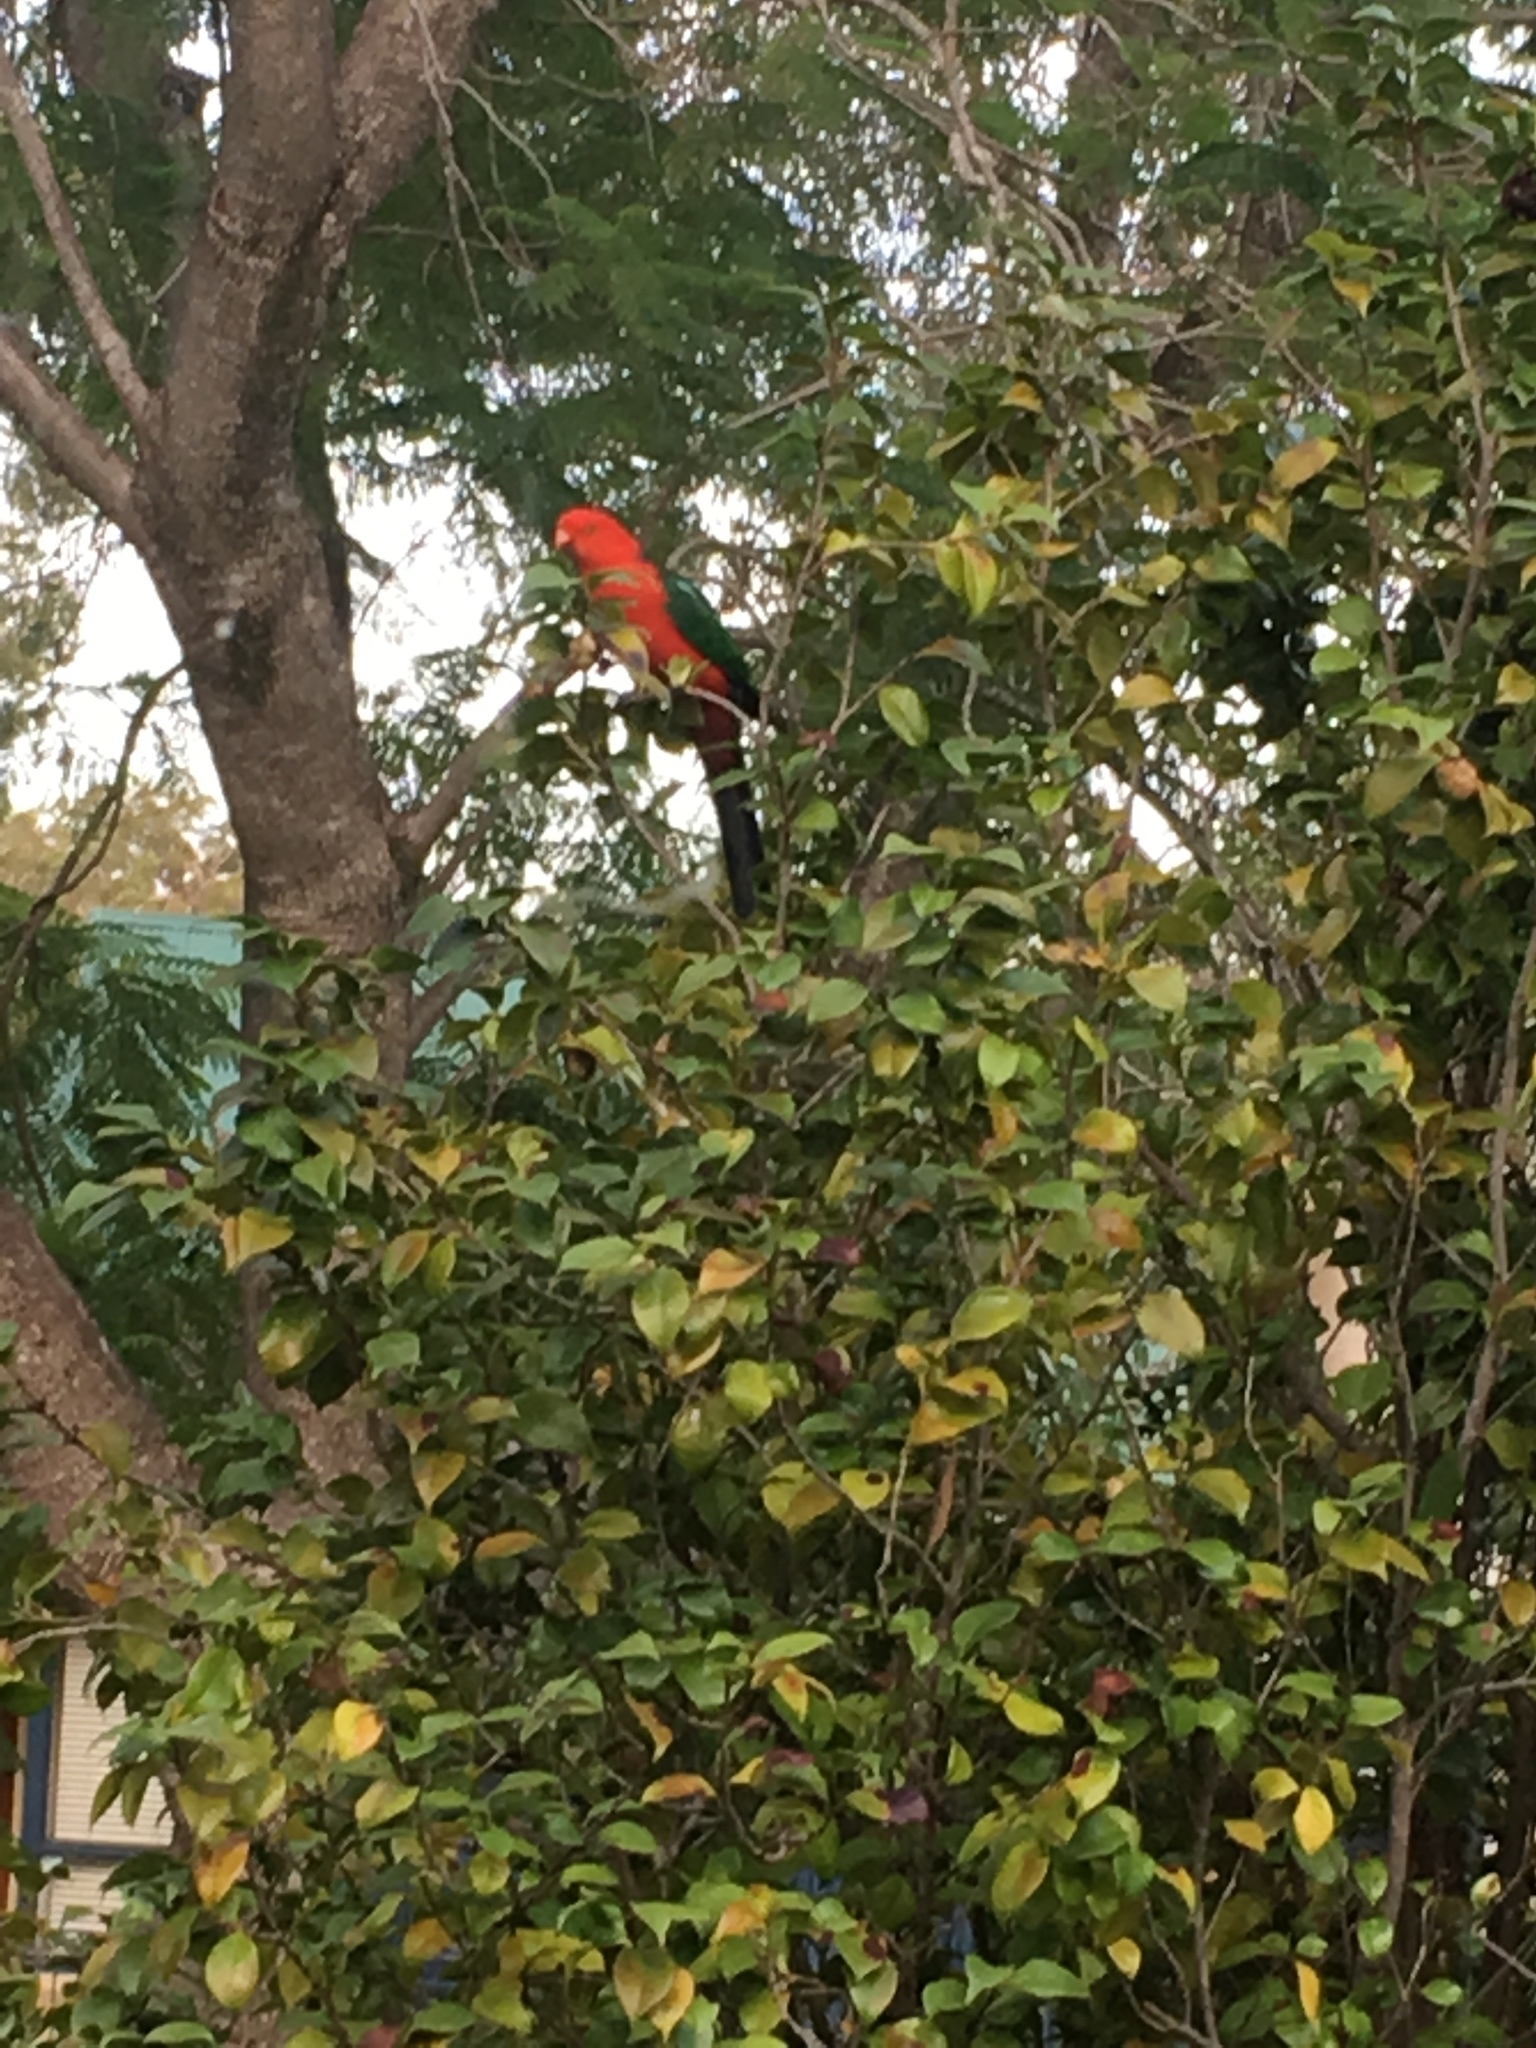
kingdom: Animalia
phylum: Chordata
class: Aves
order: Psittaciformes
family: Psittacidae
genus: Alisterus
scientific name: Alisterus scapularis
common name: Australian king parrot
